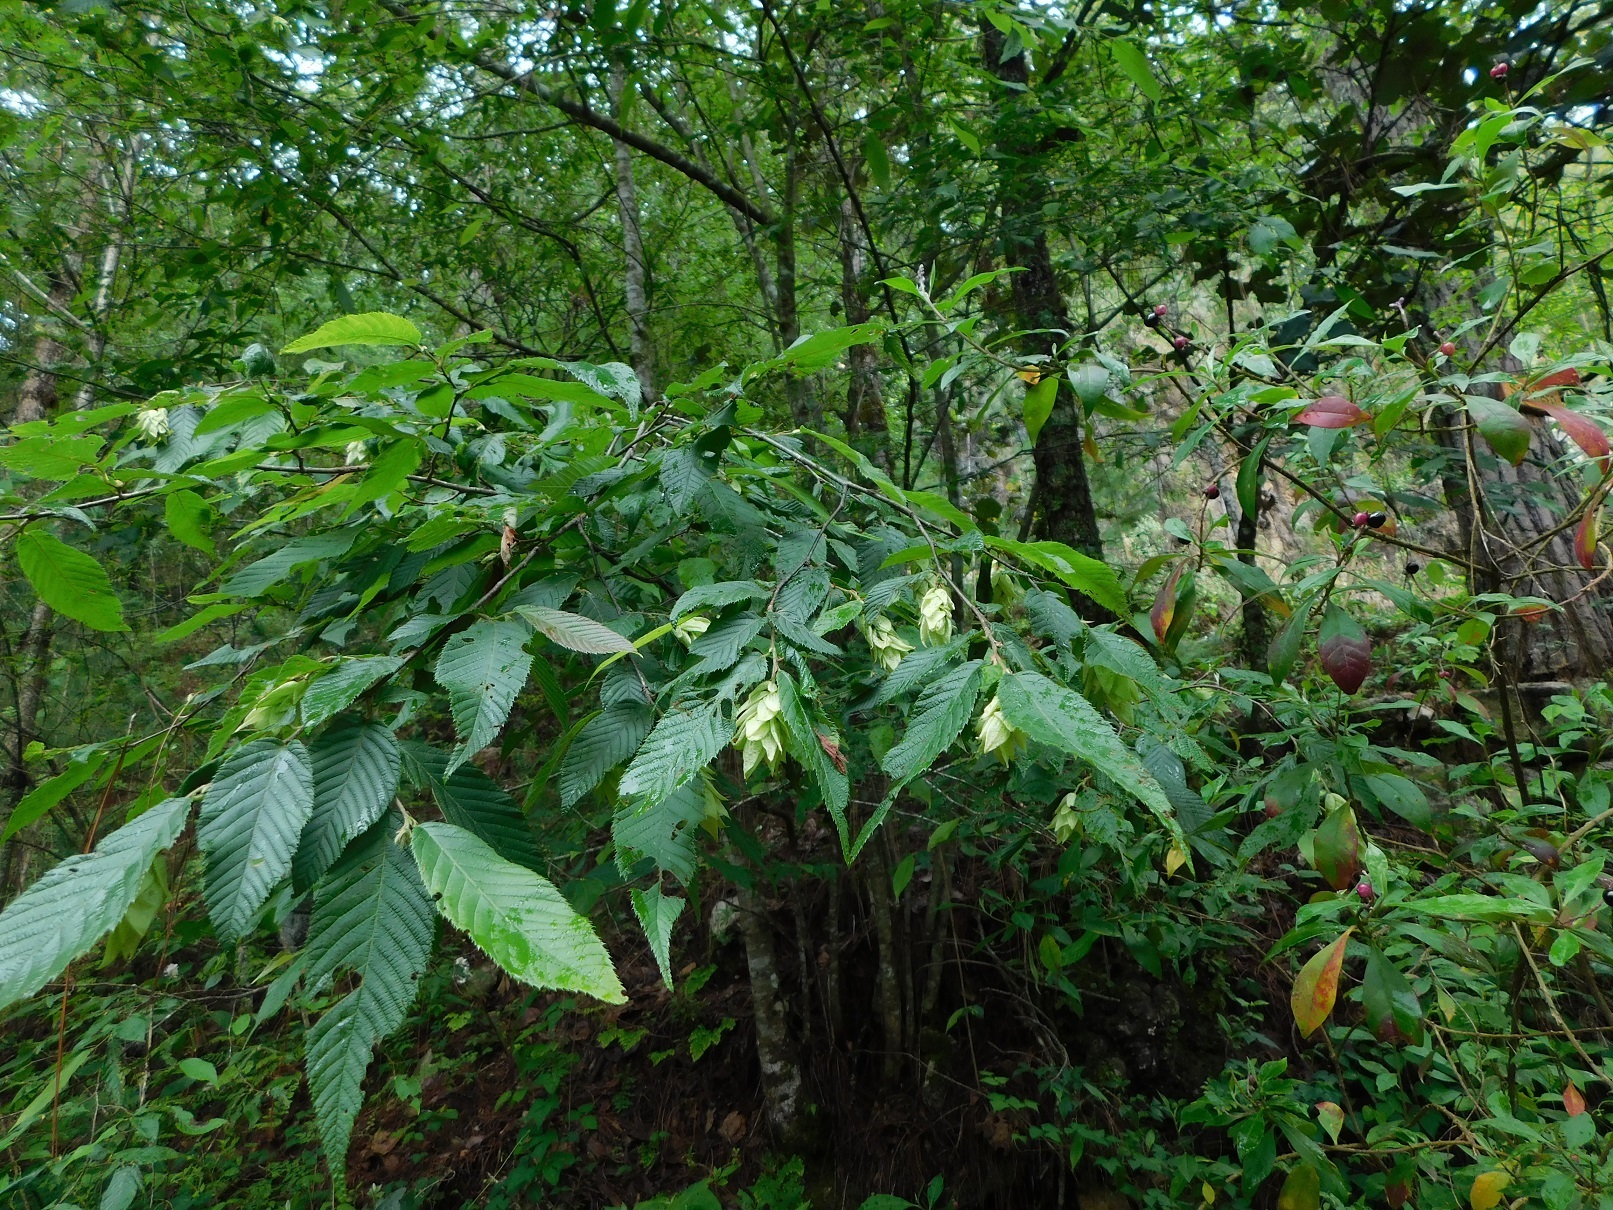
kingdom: Plantae
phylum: Tracheophyta
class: Magnoliopsida
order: Fagales
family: Betulaceae
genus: Ostrya
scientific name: Ostrya virginiana
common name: Ironwood
